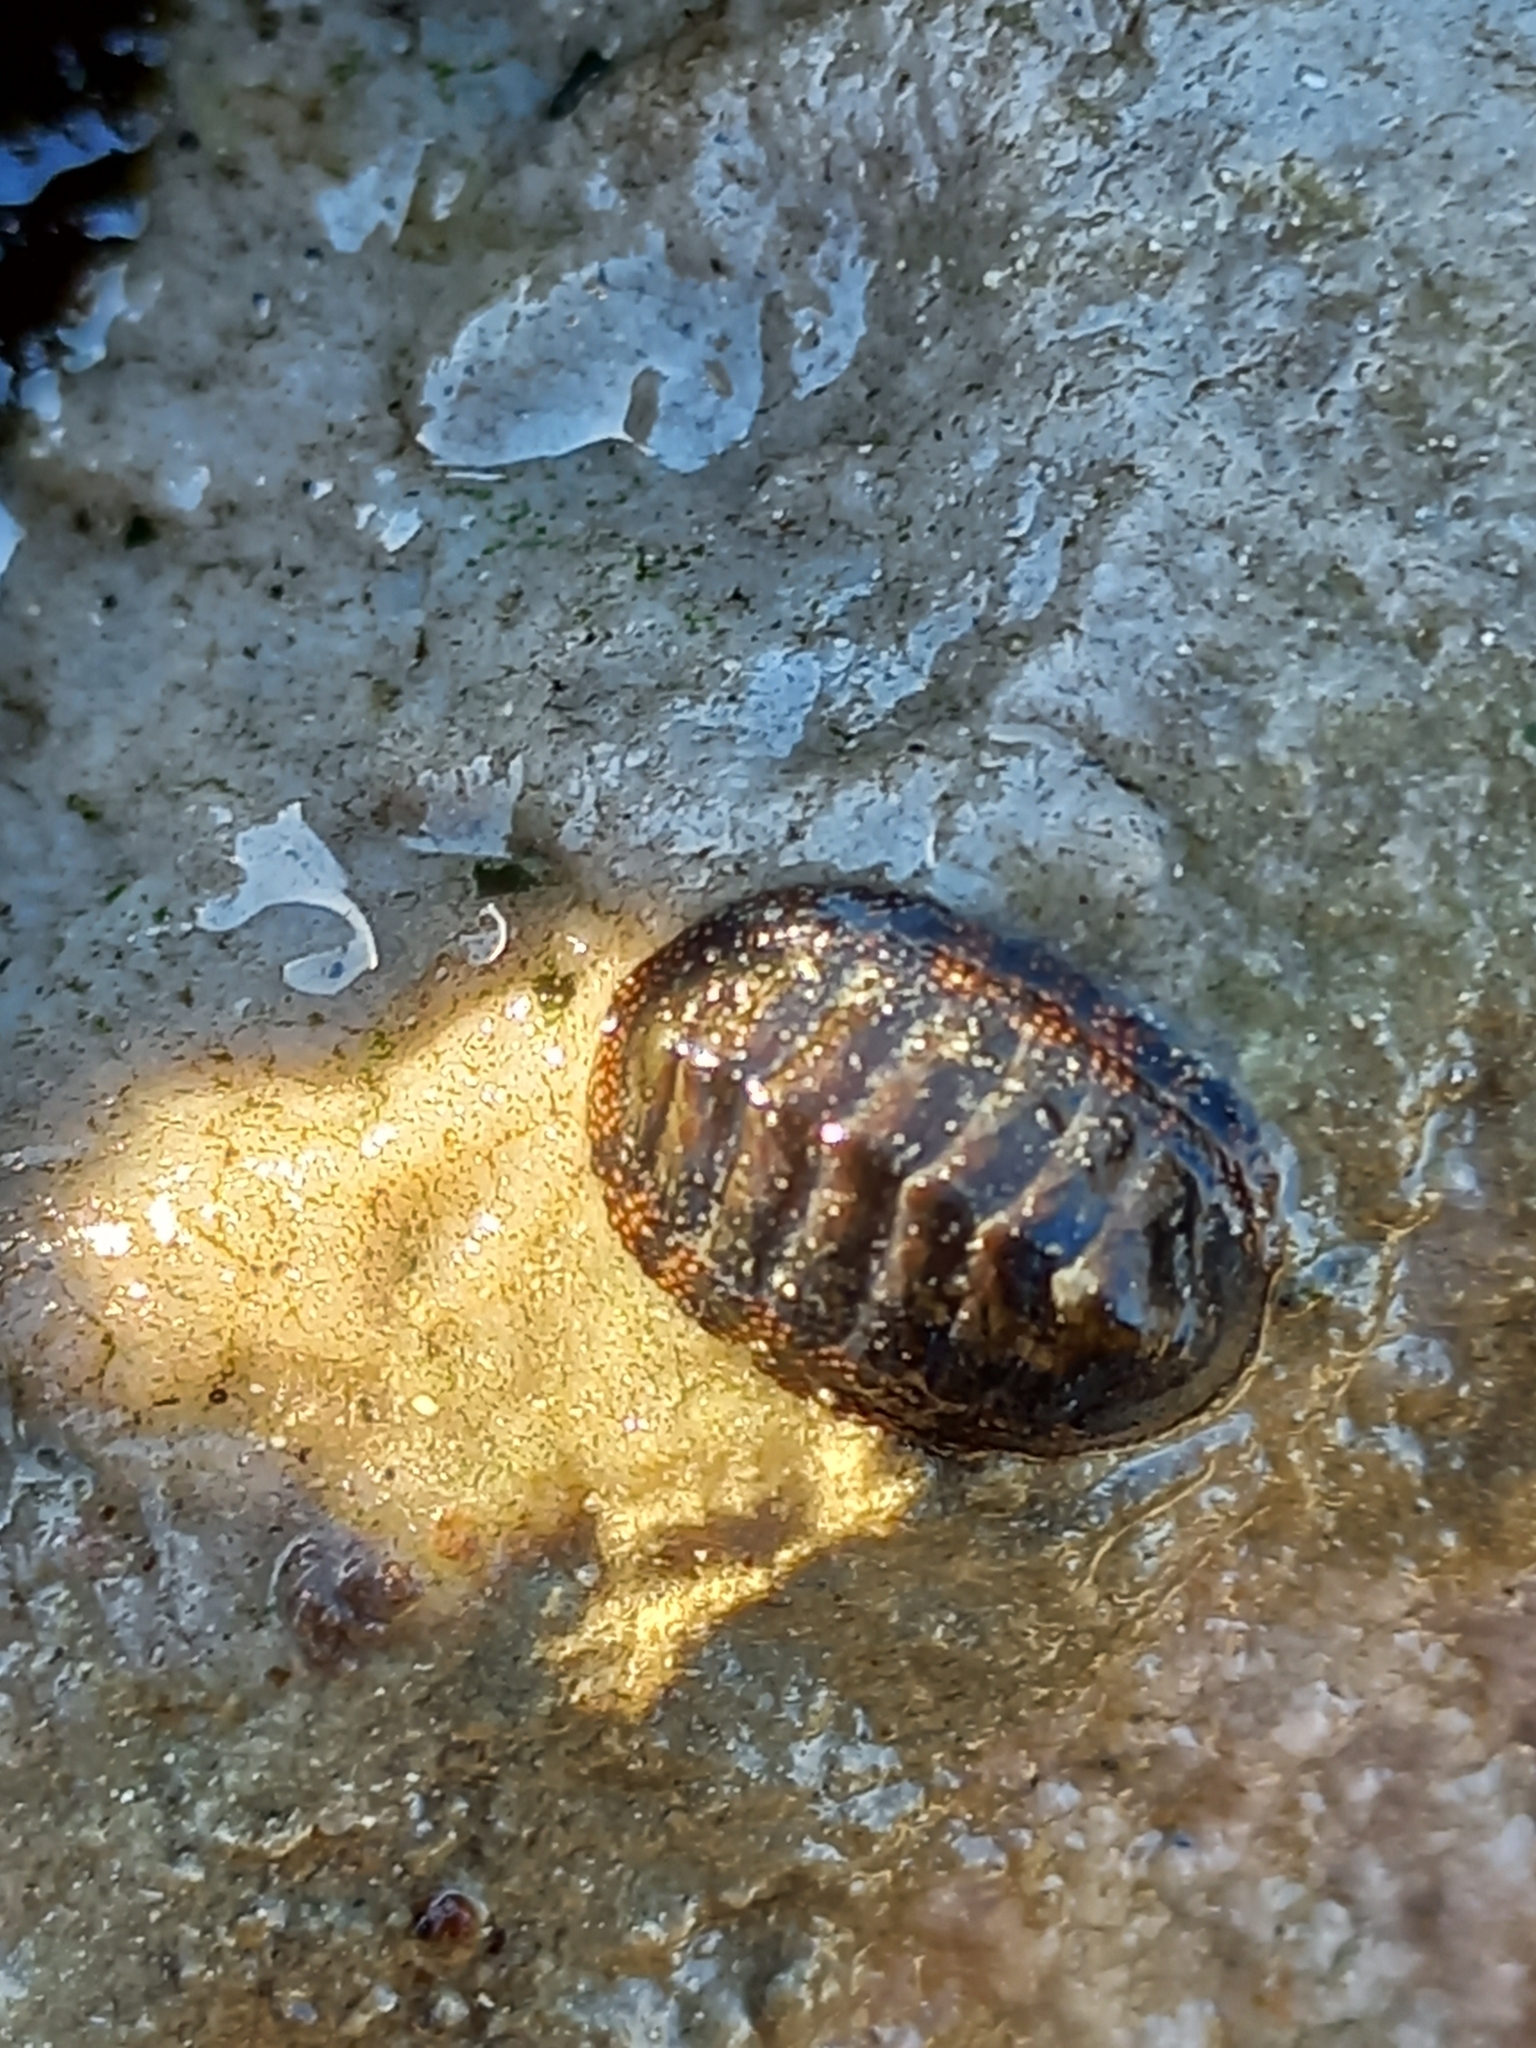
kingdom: Animalia
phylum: Mollusca
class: Polyplacophora
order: Chitonida
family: Chitonidae
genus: Radsia
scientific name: Radsia nigrovirescens
